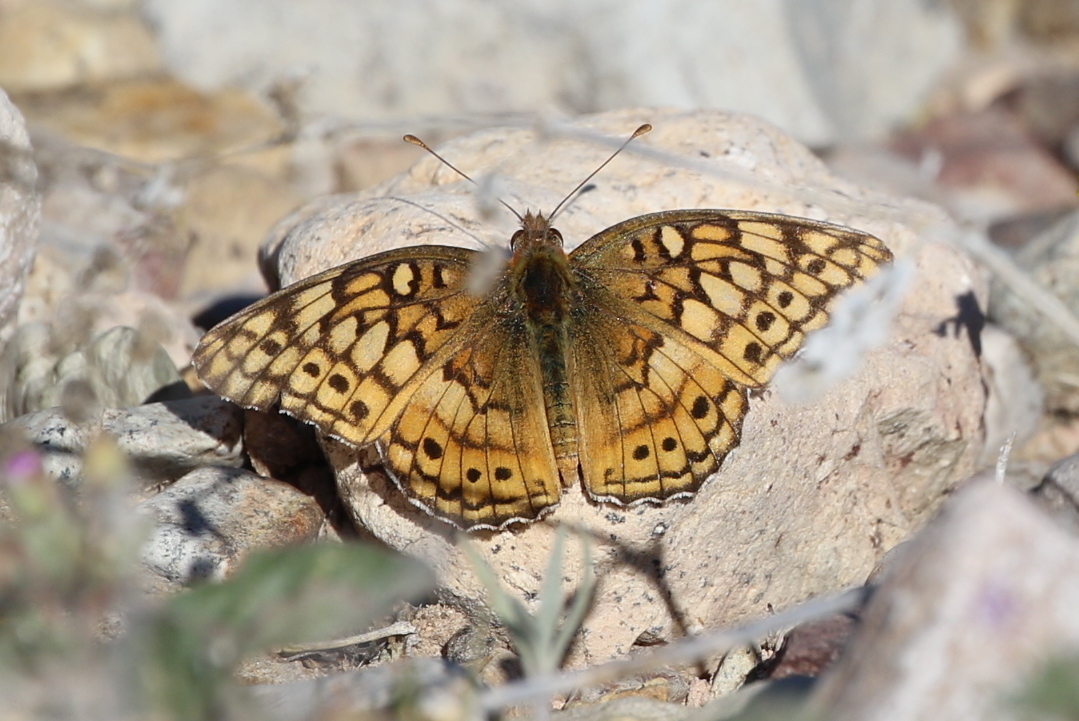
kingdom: Animalia
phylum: Arthropoda
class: Insecta
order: Lepidoptera
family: Nymphalidae
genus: Euptoieta
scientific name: Euptoieta claudia
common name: Variegated fritillary
